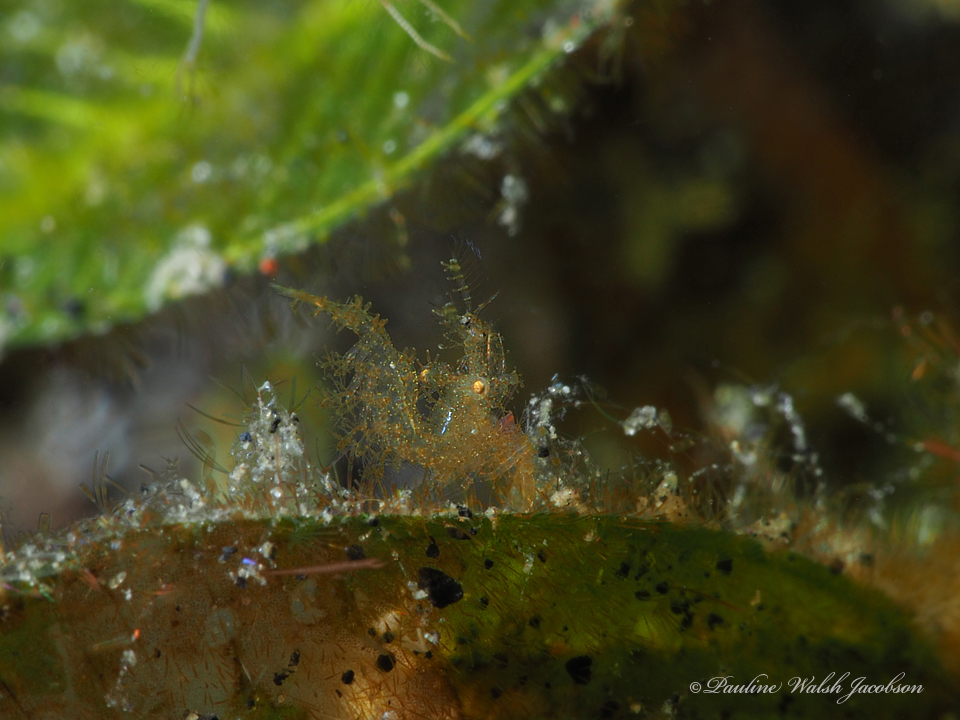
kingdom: Animalia
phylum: Arthropoda
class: Malacostraca
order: Decapoda
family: Hippolytidae
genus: Phycocaris
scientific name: Phycocaris simulans
